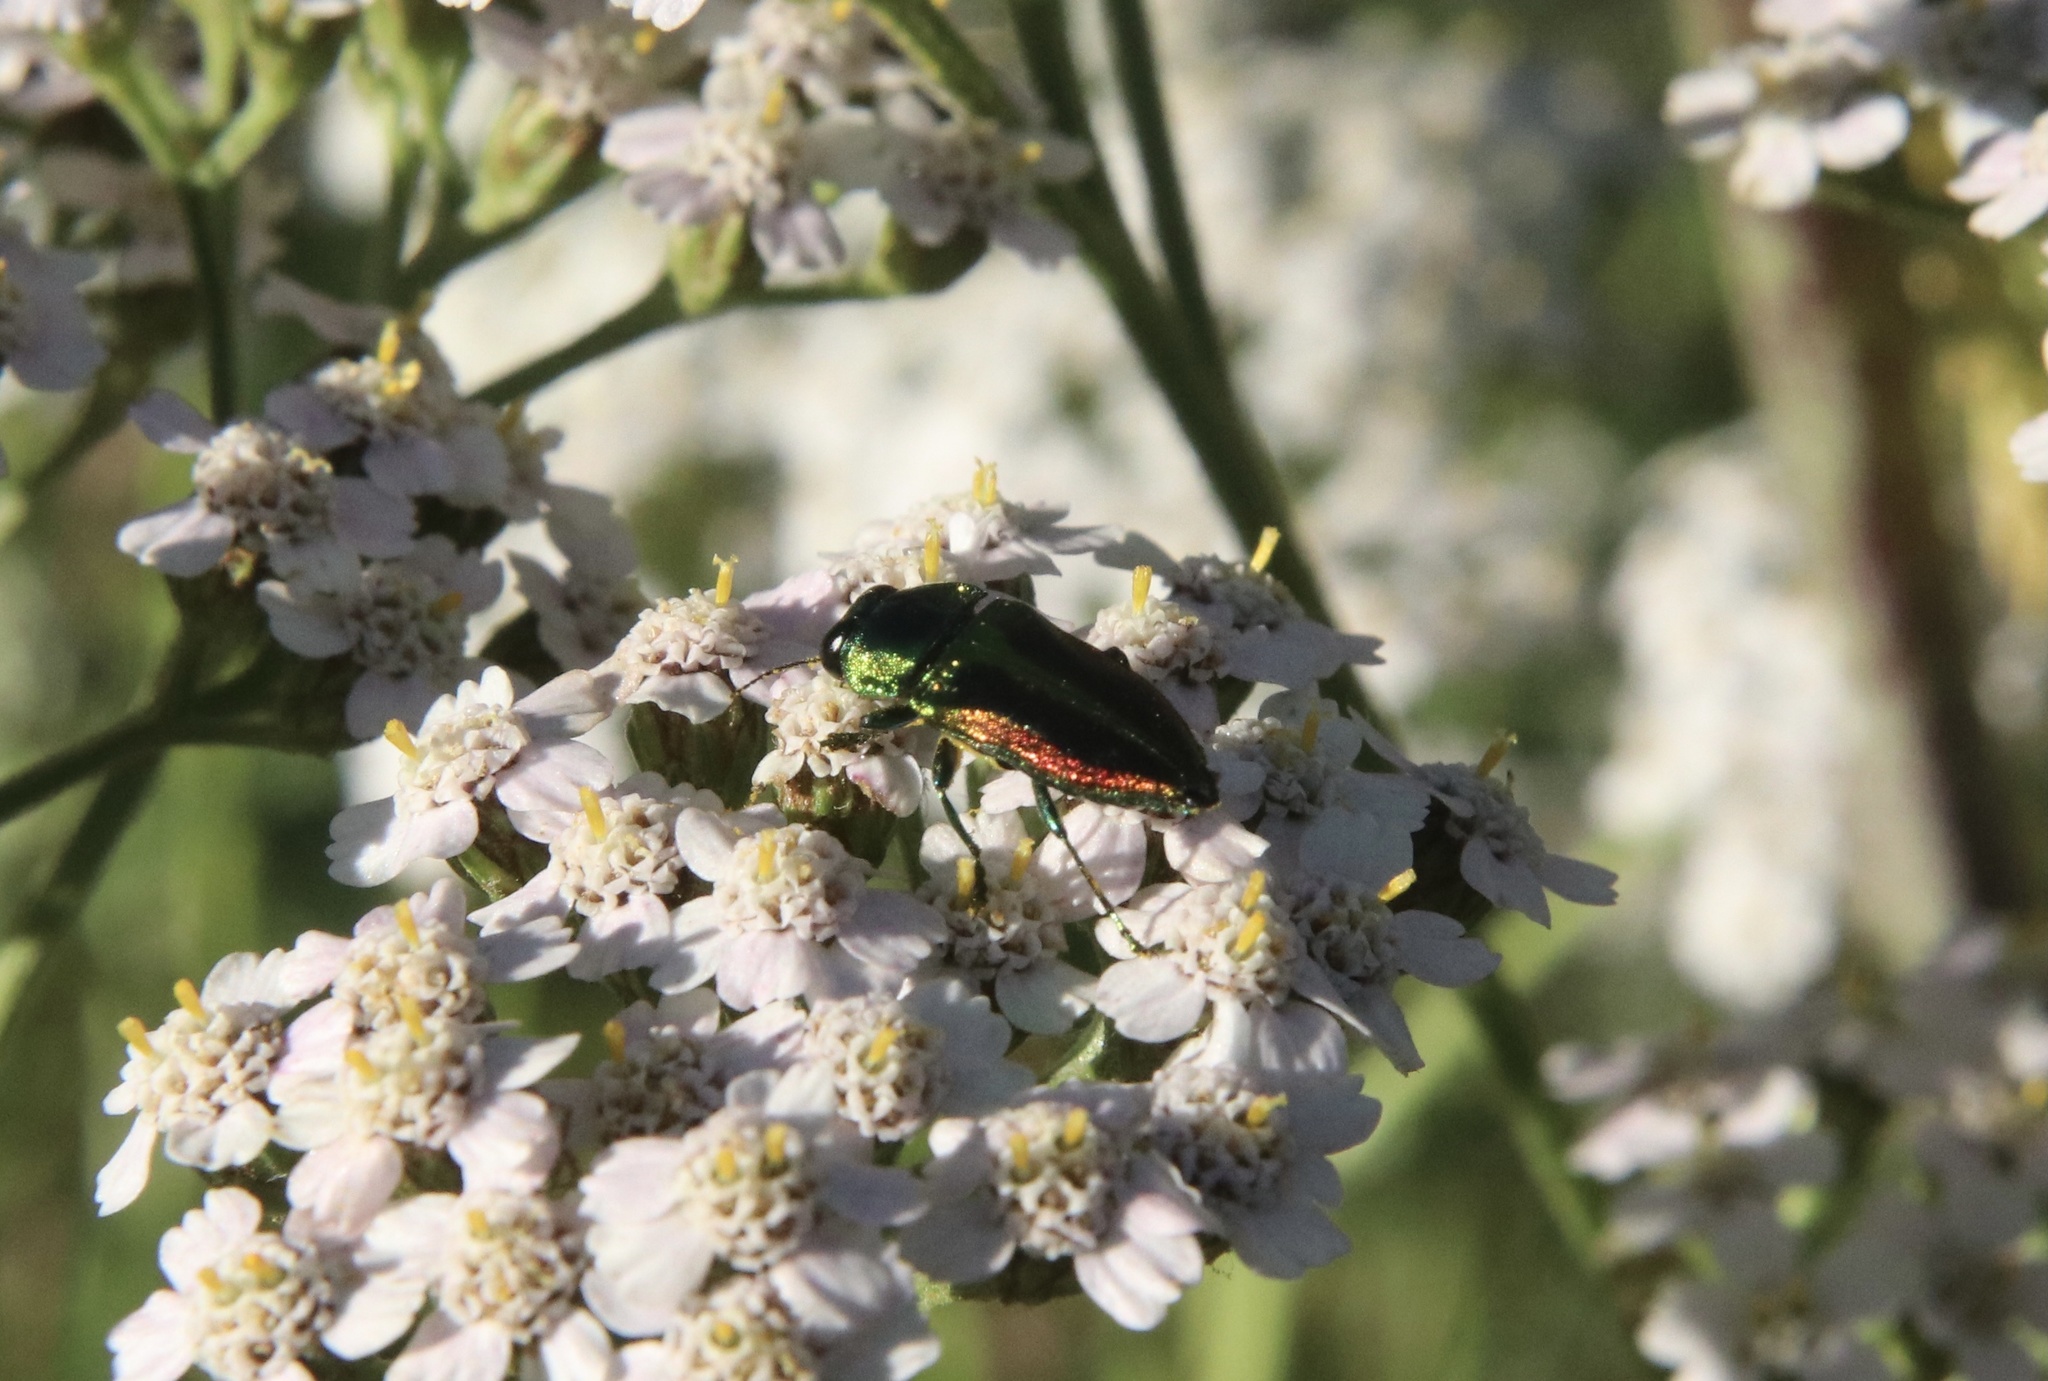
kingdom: Animalia
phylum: Arthropoda
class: Insecta
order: Coleoptera
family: Buprestidae
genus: Cylindrophora
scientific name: Cylindrophora
